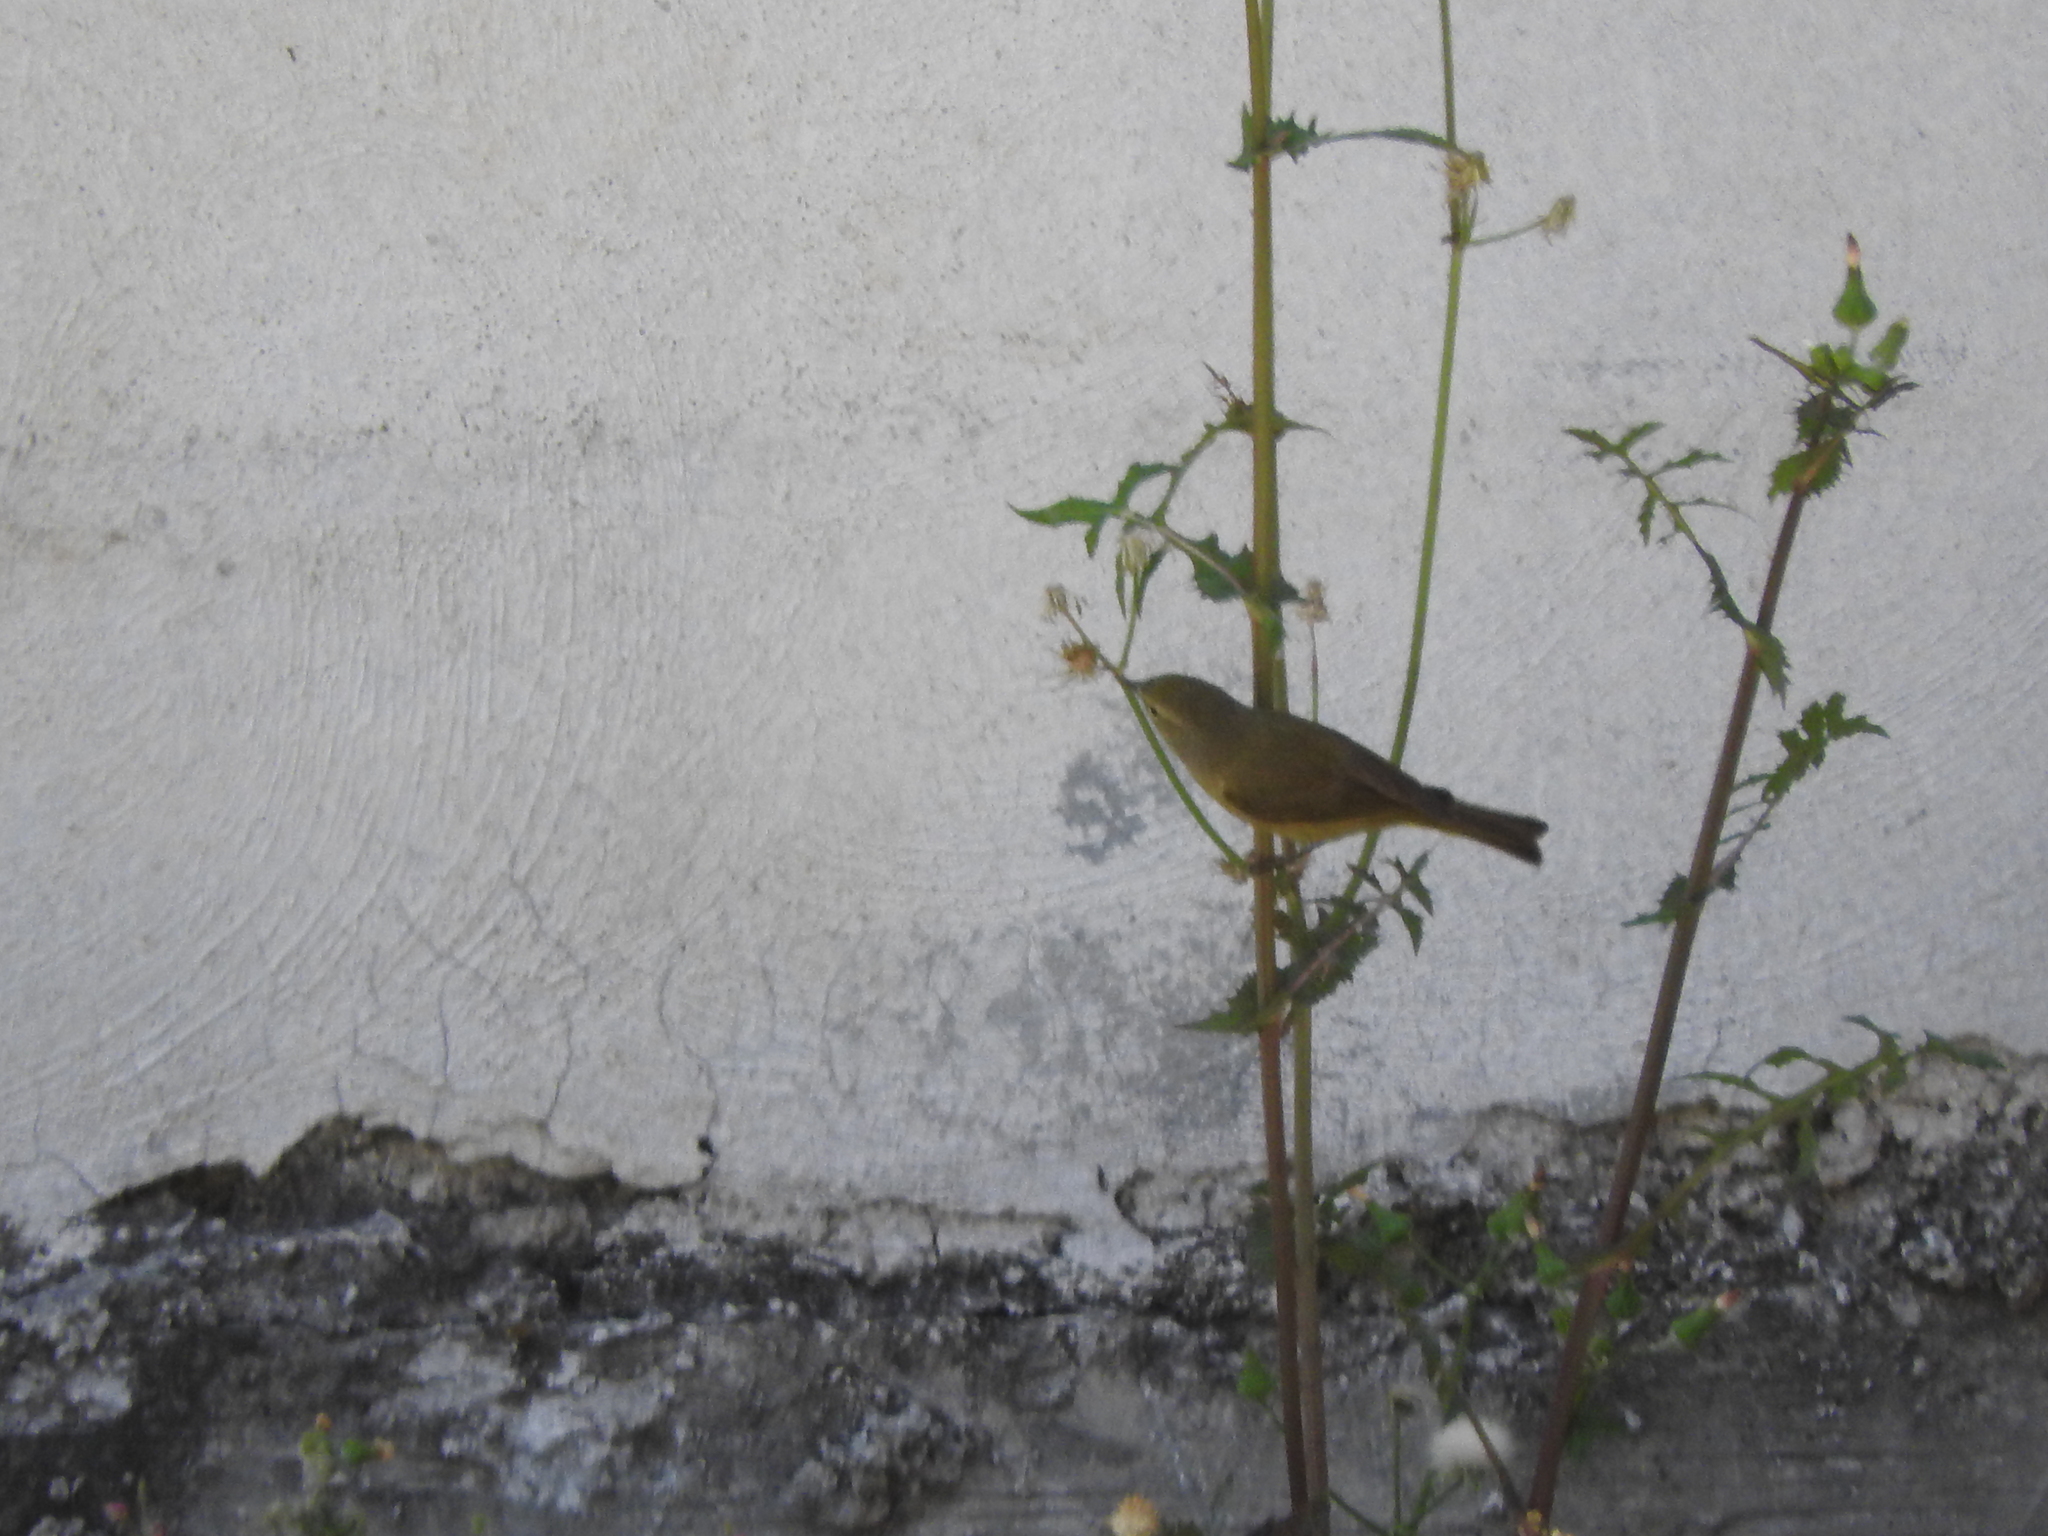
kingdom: Animalia
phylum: Chordata
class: Aves
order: Passeriformes
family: Parulidae
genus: Leiothlypis
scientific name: Leiothlypis celata
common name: Orange-crowned warbler
